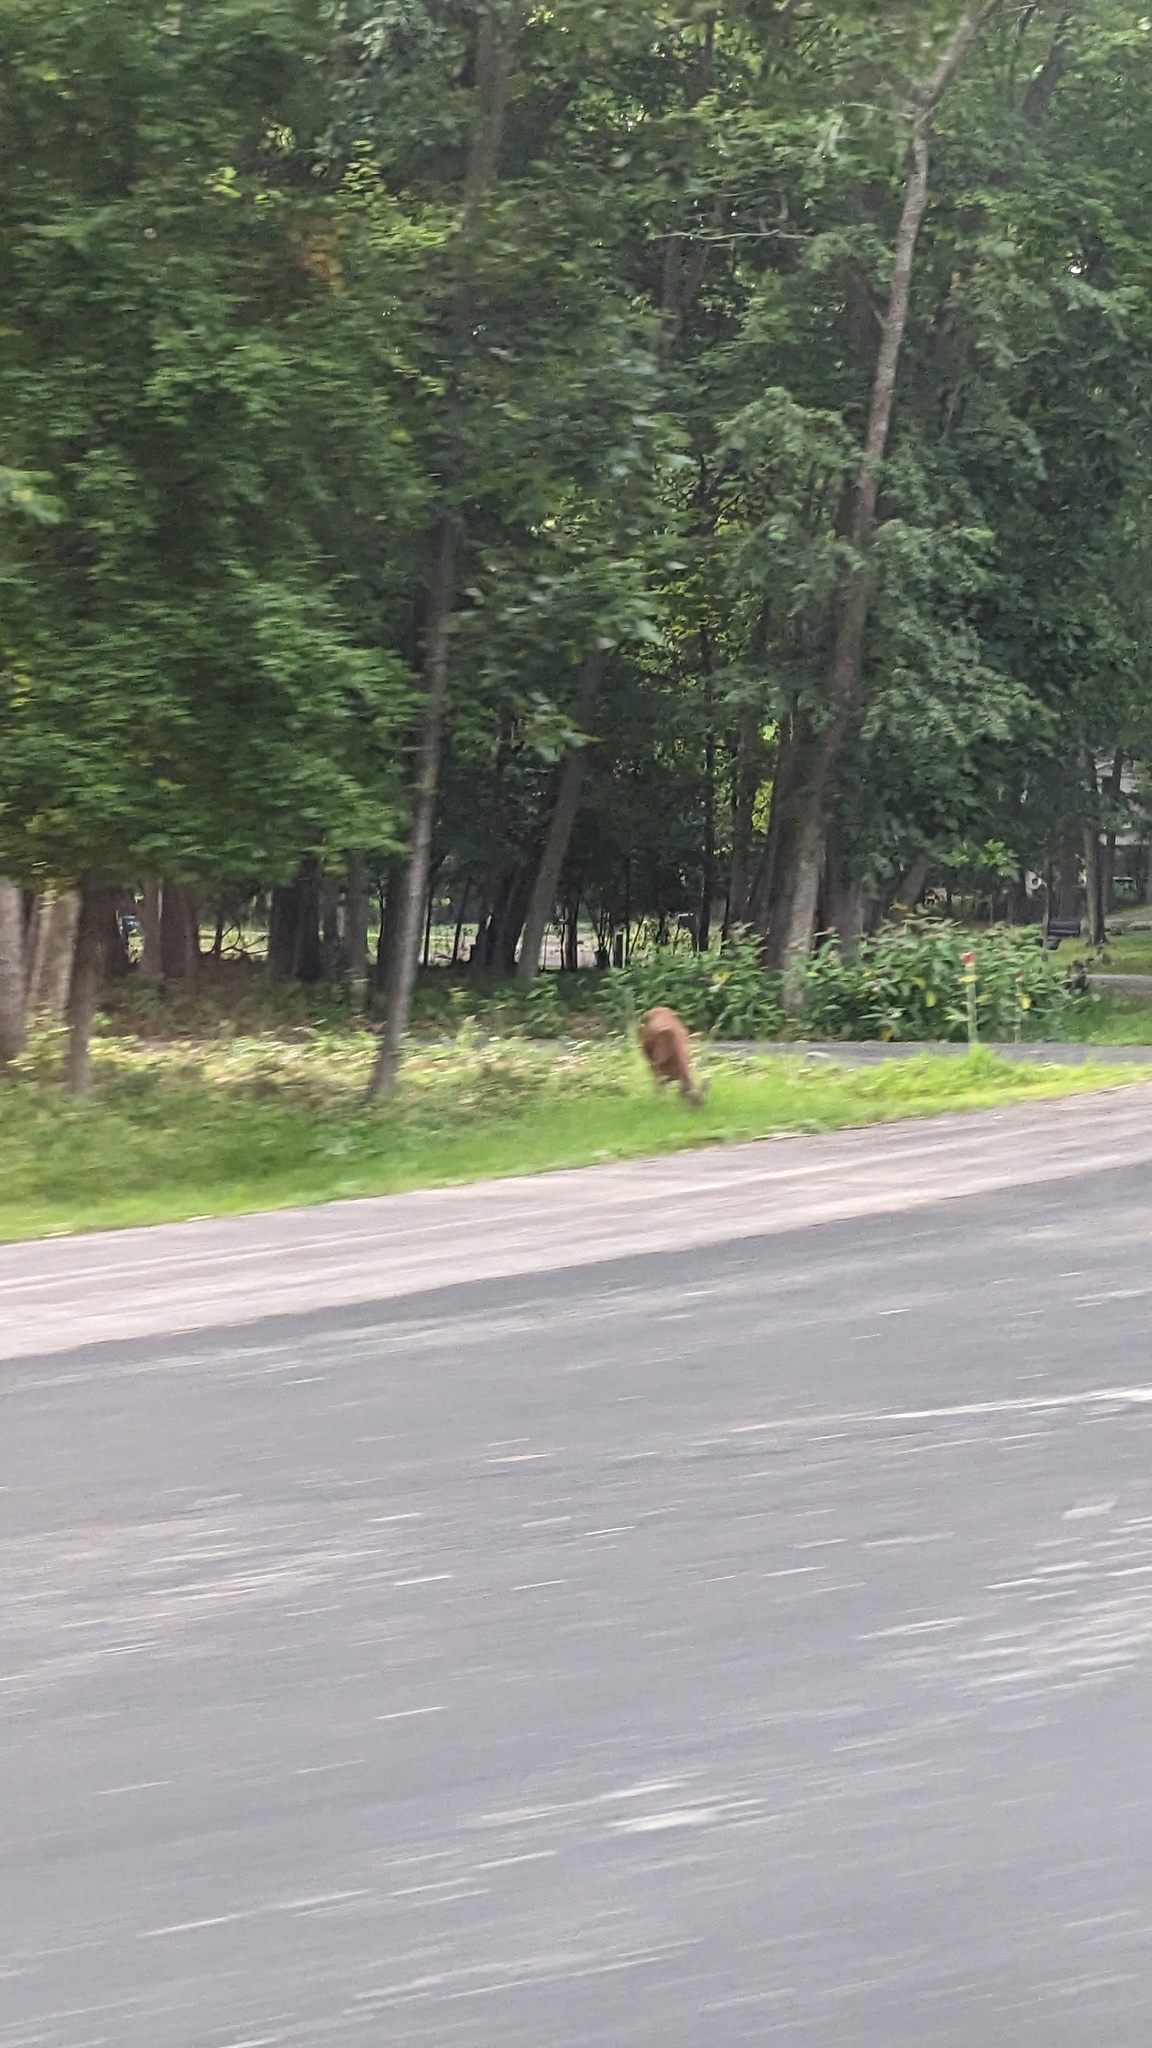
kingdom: Animalia
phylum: Chordata
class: Mammalia
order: Artiodactyla
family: Cervidae
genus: Odocoileus
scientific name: Odocoileus virginianus
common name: White-tailed deer
